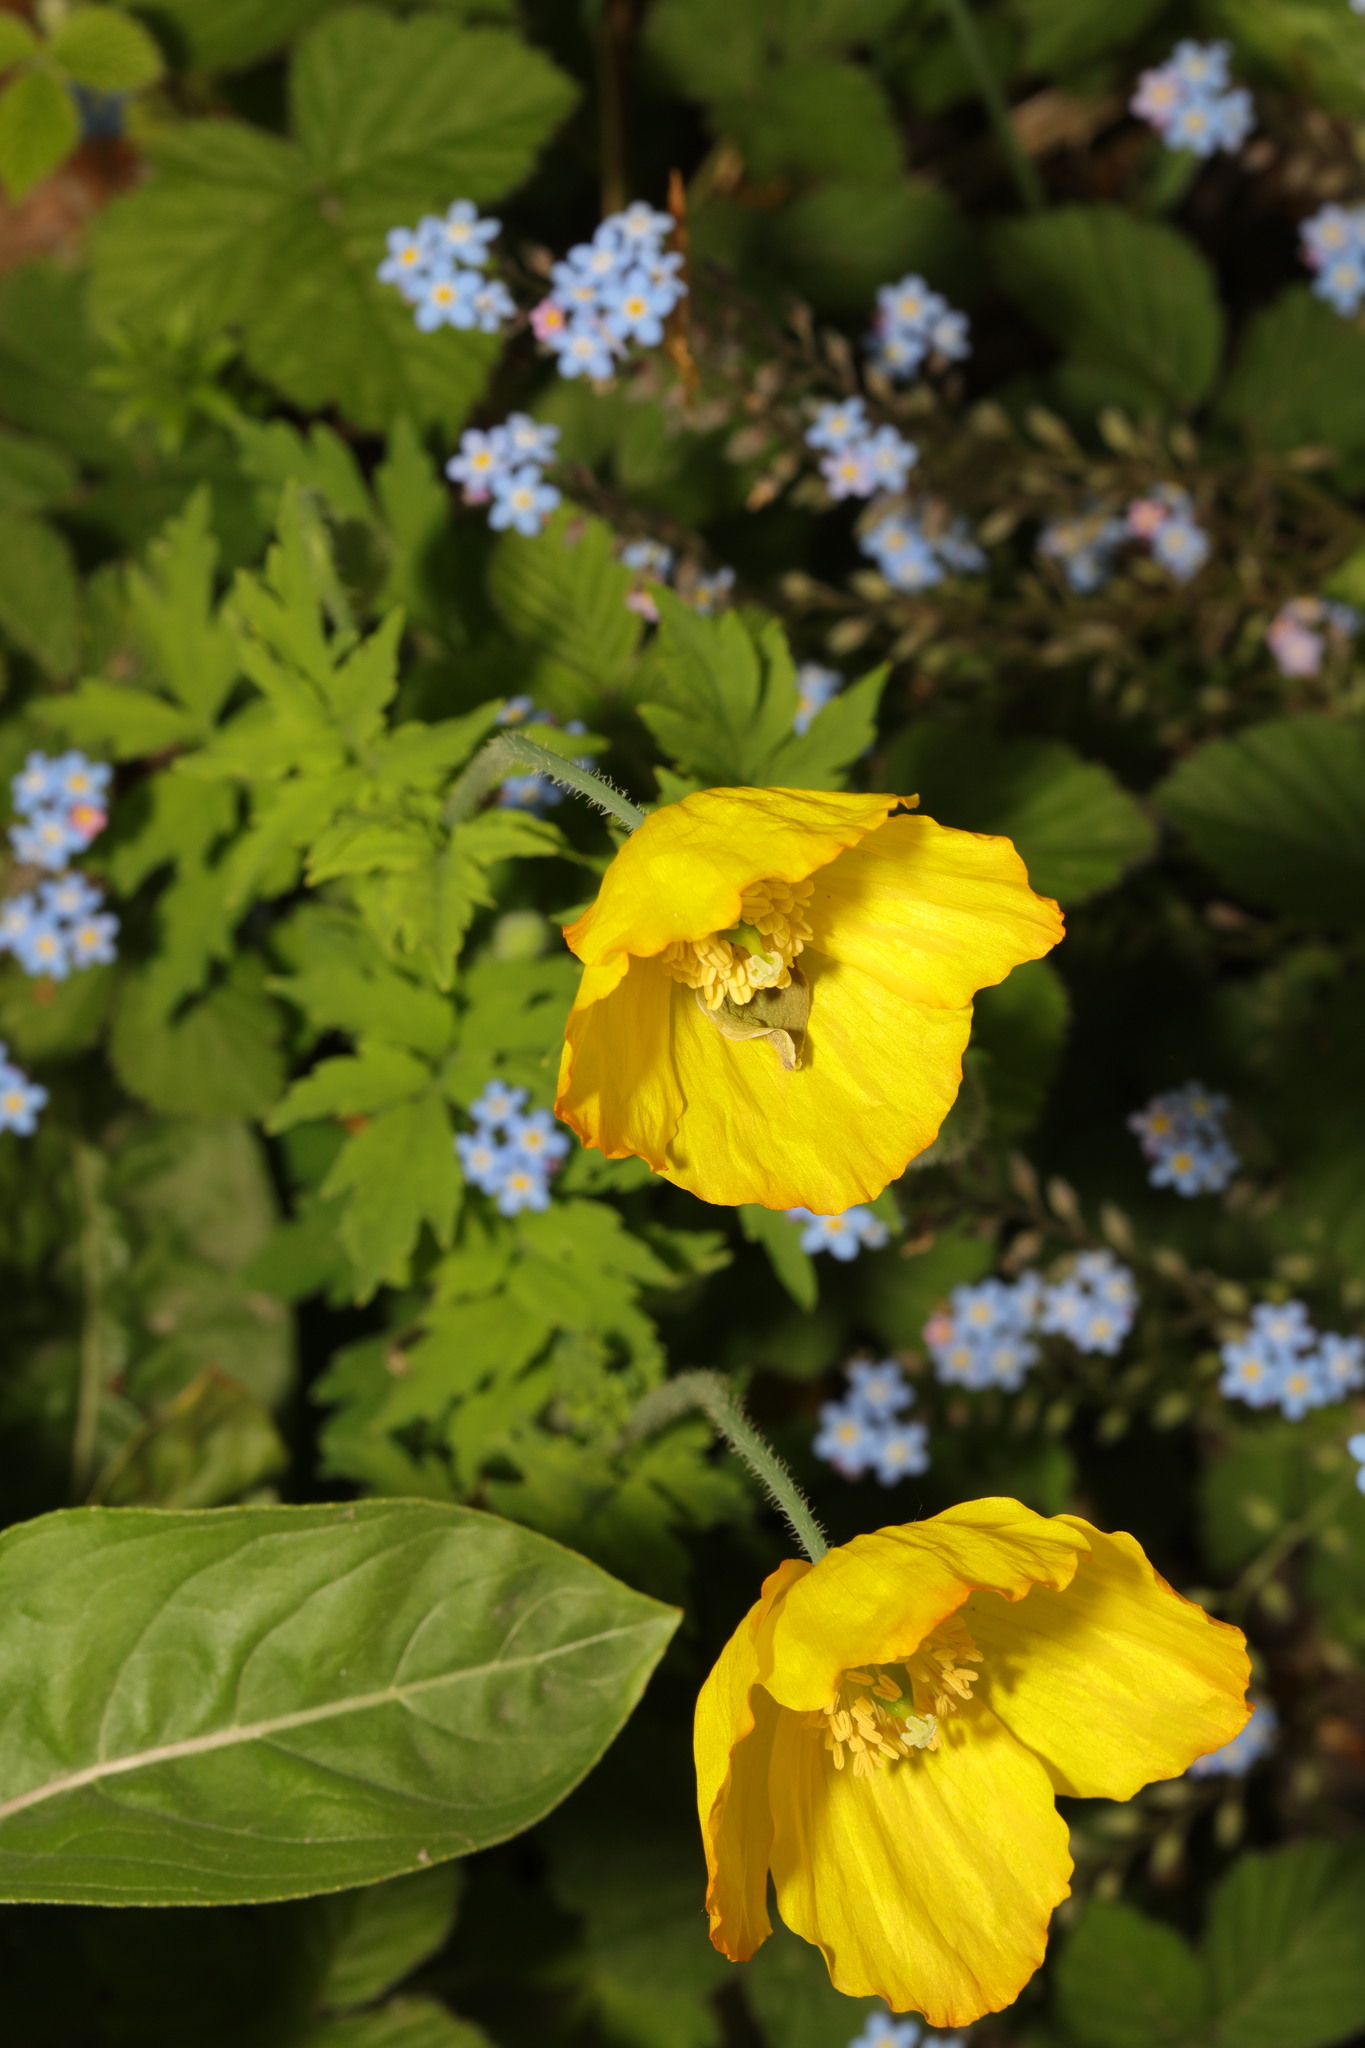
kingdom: Plantae
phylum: Tracheophyta
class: Magnoliopsida
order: Ranunculales
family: Papaveraceae
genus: Papaver
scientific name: Papaver cambricum
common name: Poppy
